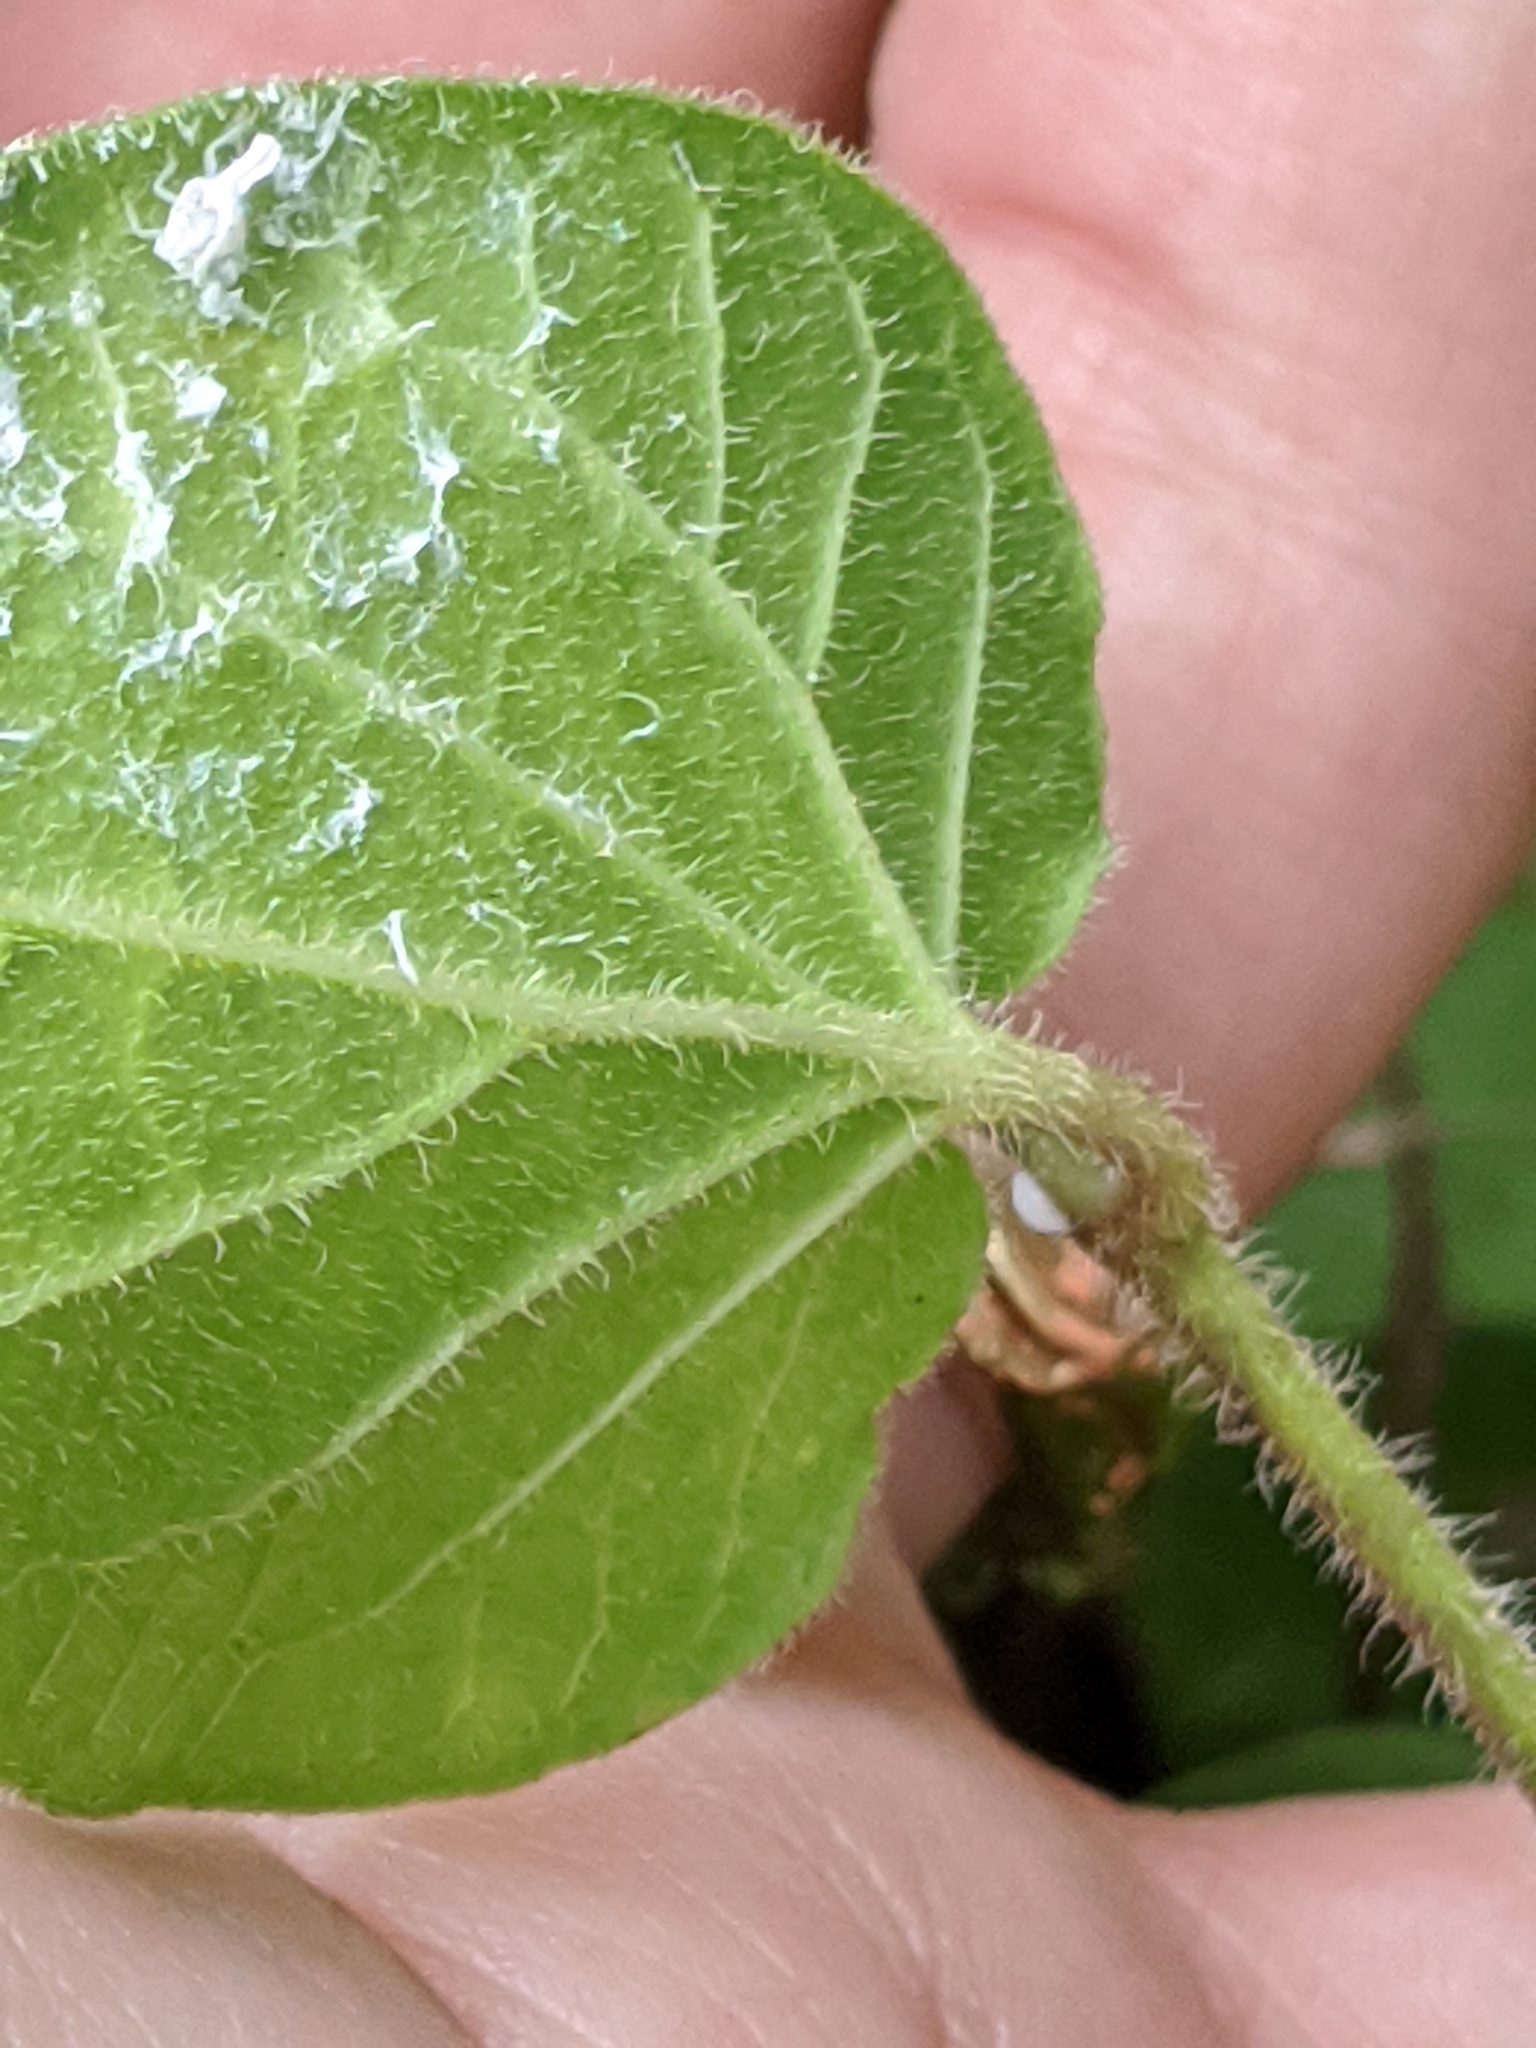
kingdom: Plantae
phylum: Tracheophyta
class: Magnoliopsida
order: Gentianales
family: Apocynaceae
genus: Matelea
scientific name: Matelea cynanchoides
